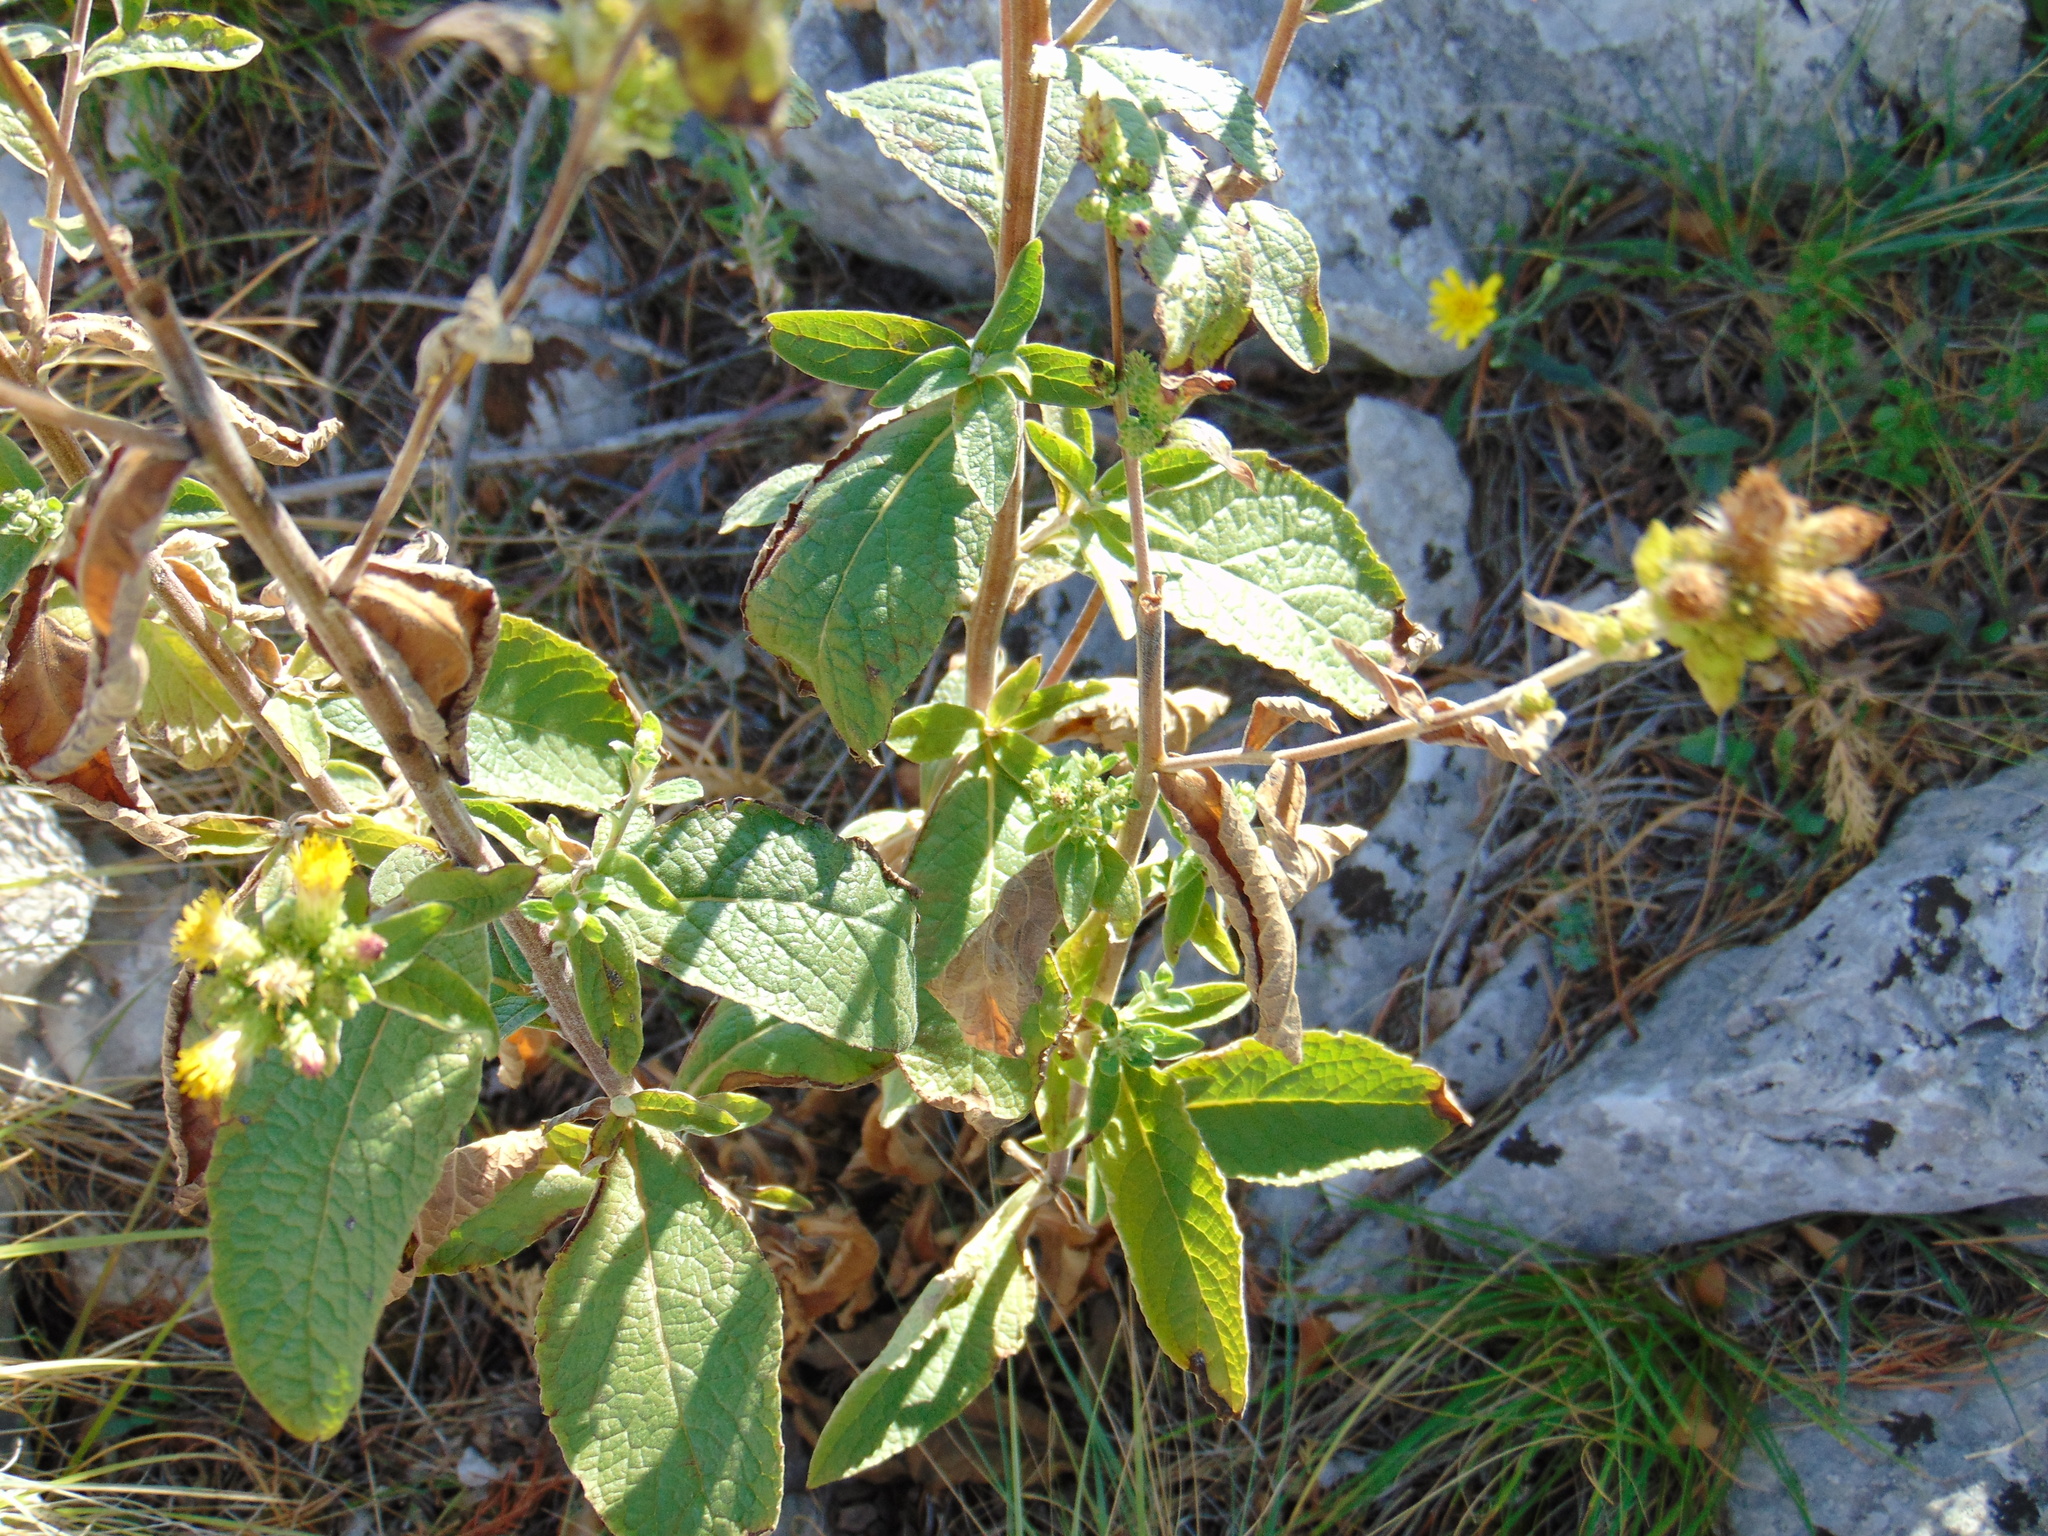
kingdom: Plantae
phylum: Tracheophyta
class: Magnoliopsida
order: Asterales
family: Asteraceae
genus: Pentanema
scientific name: Pentanema squarrosum
